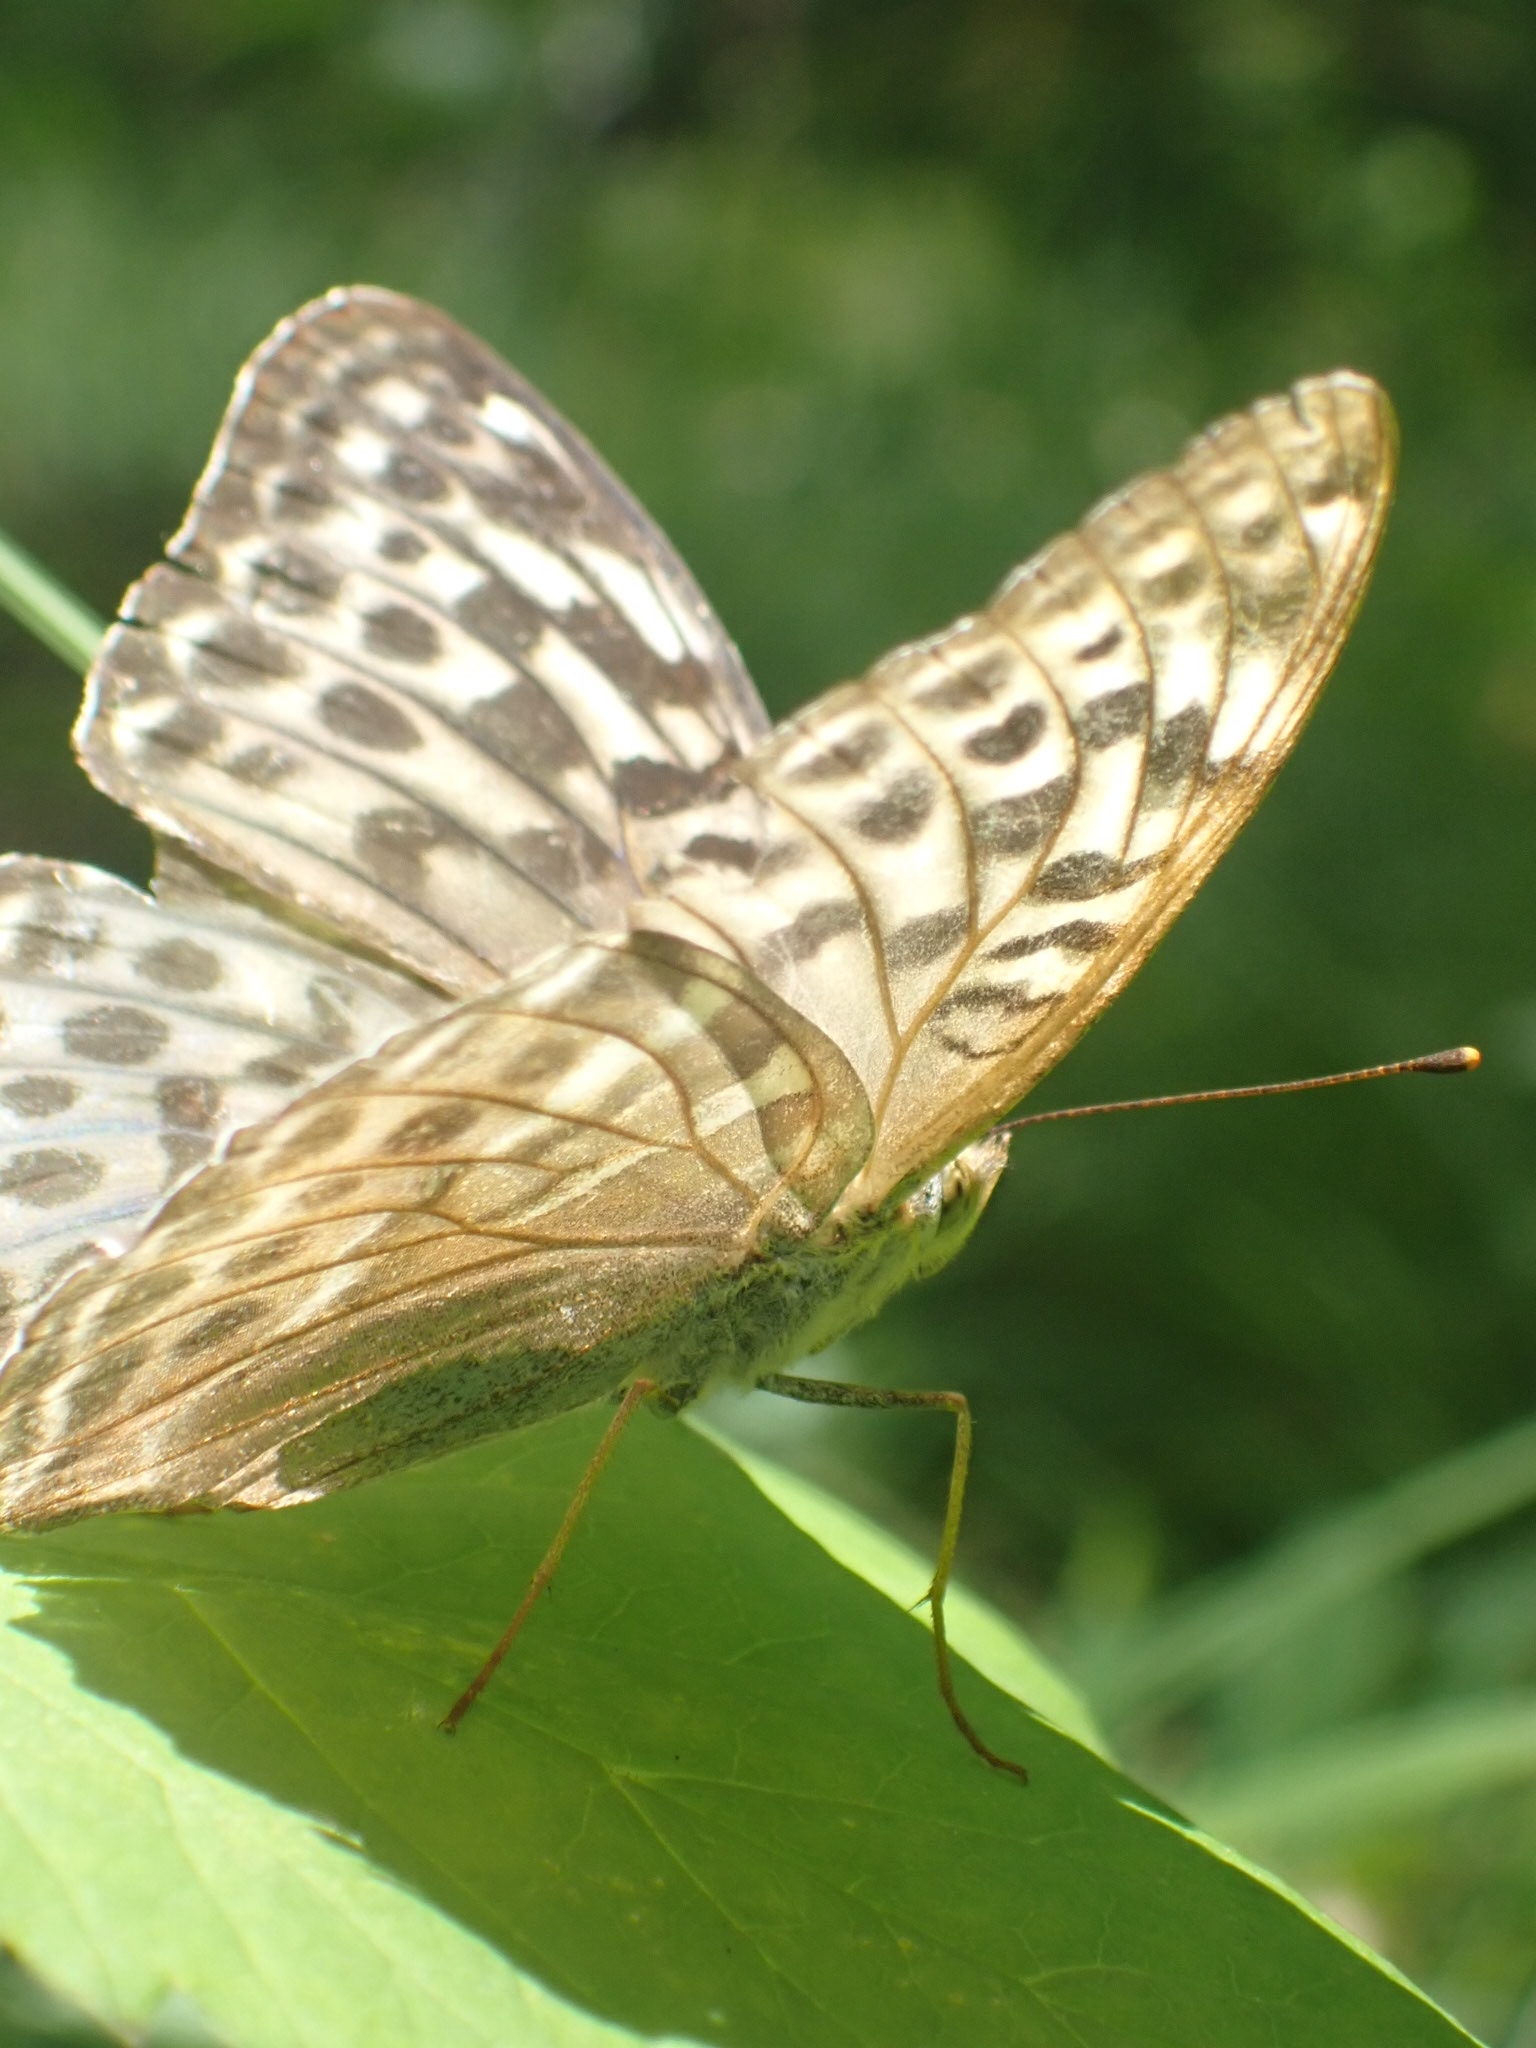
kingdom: Animalia
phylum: Arthropoda
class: Insecta
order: Lepidoptera
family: Nymphalidae
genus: Argynnis
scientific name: Argynnis paphia
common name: Silver-washed fritillary
